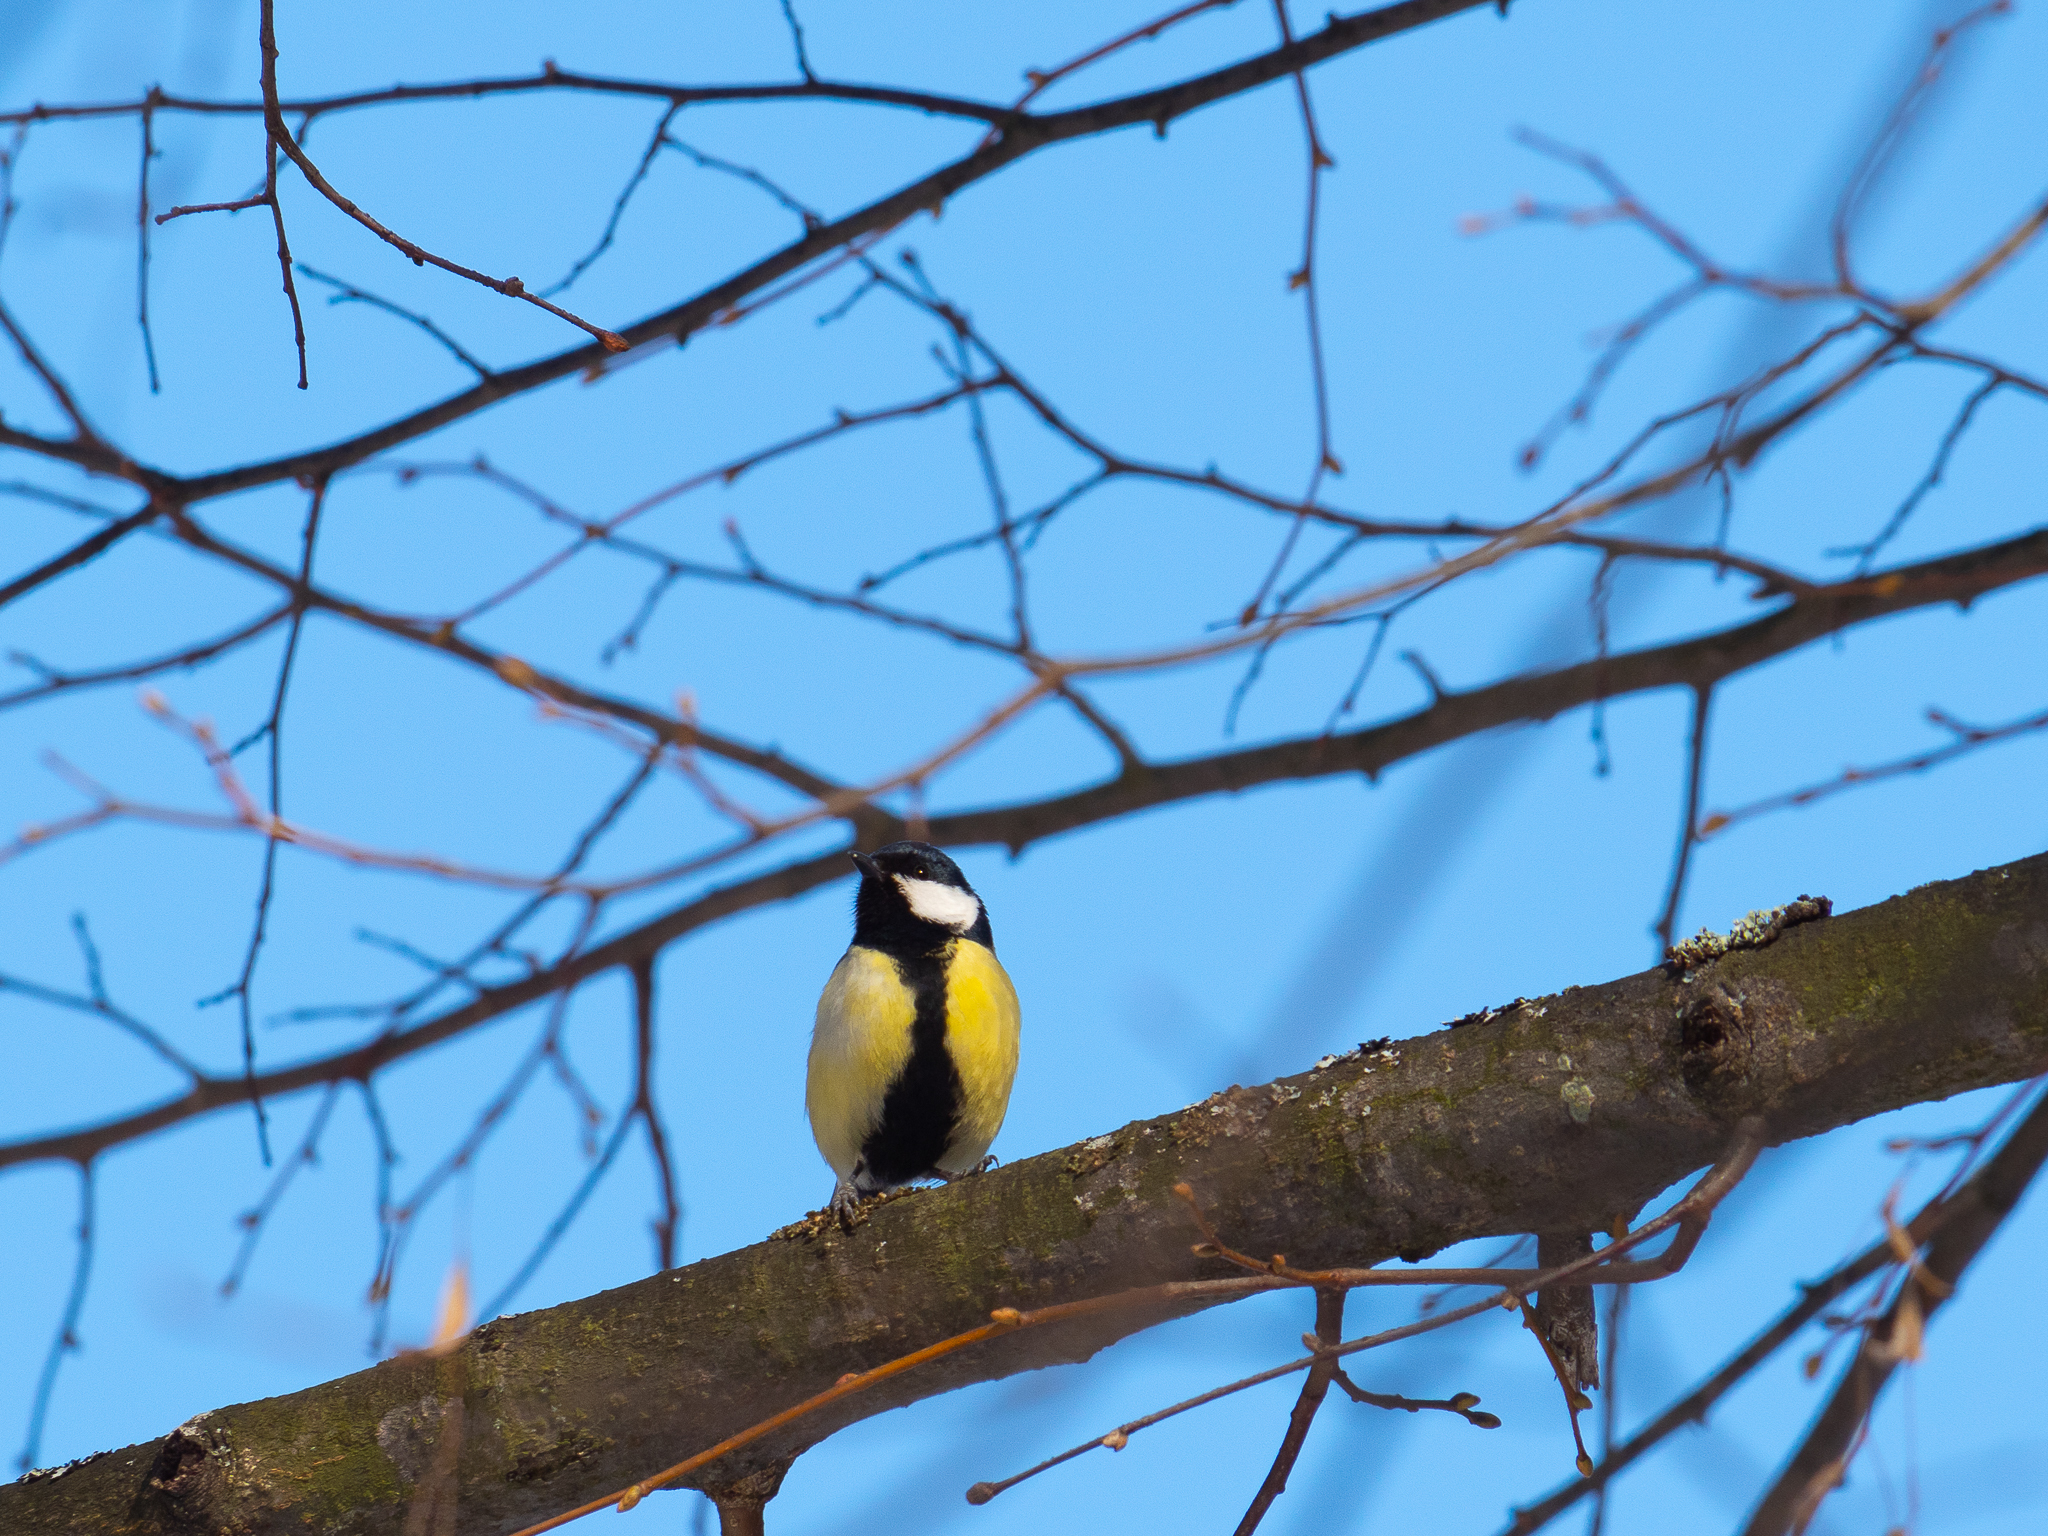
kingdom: Animalia
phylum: Chordata
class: Aves
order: Passeriformes
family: Paridae
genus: Parus
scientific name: Parus major
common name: Great tit
